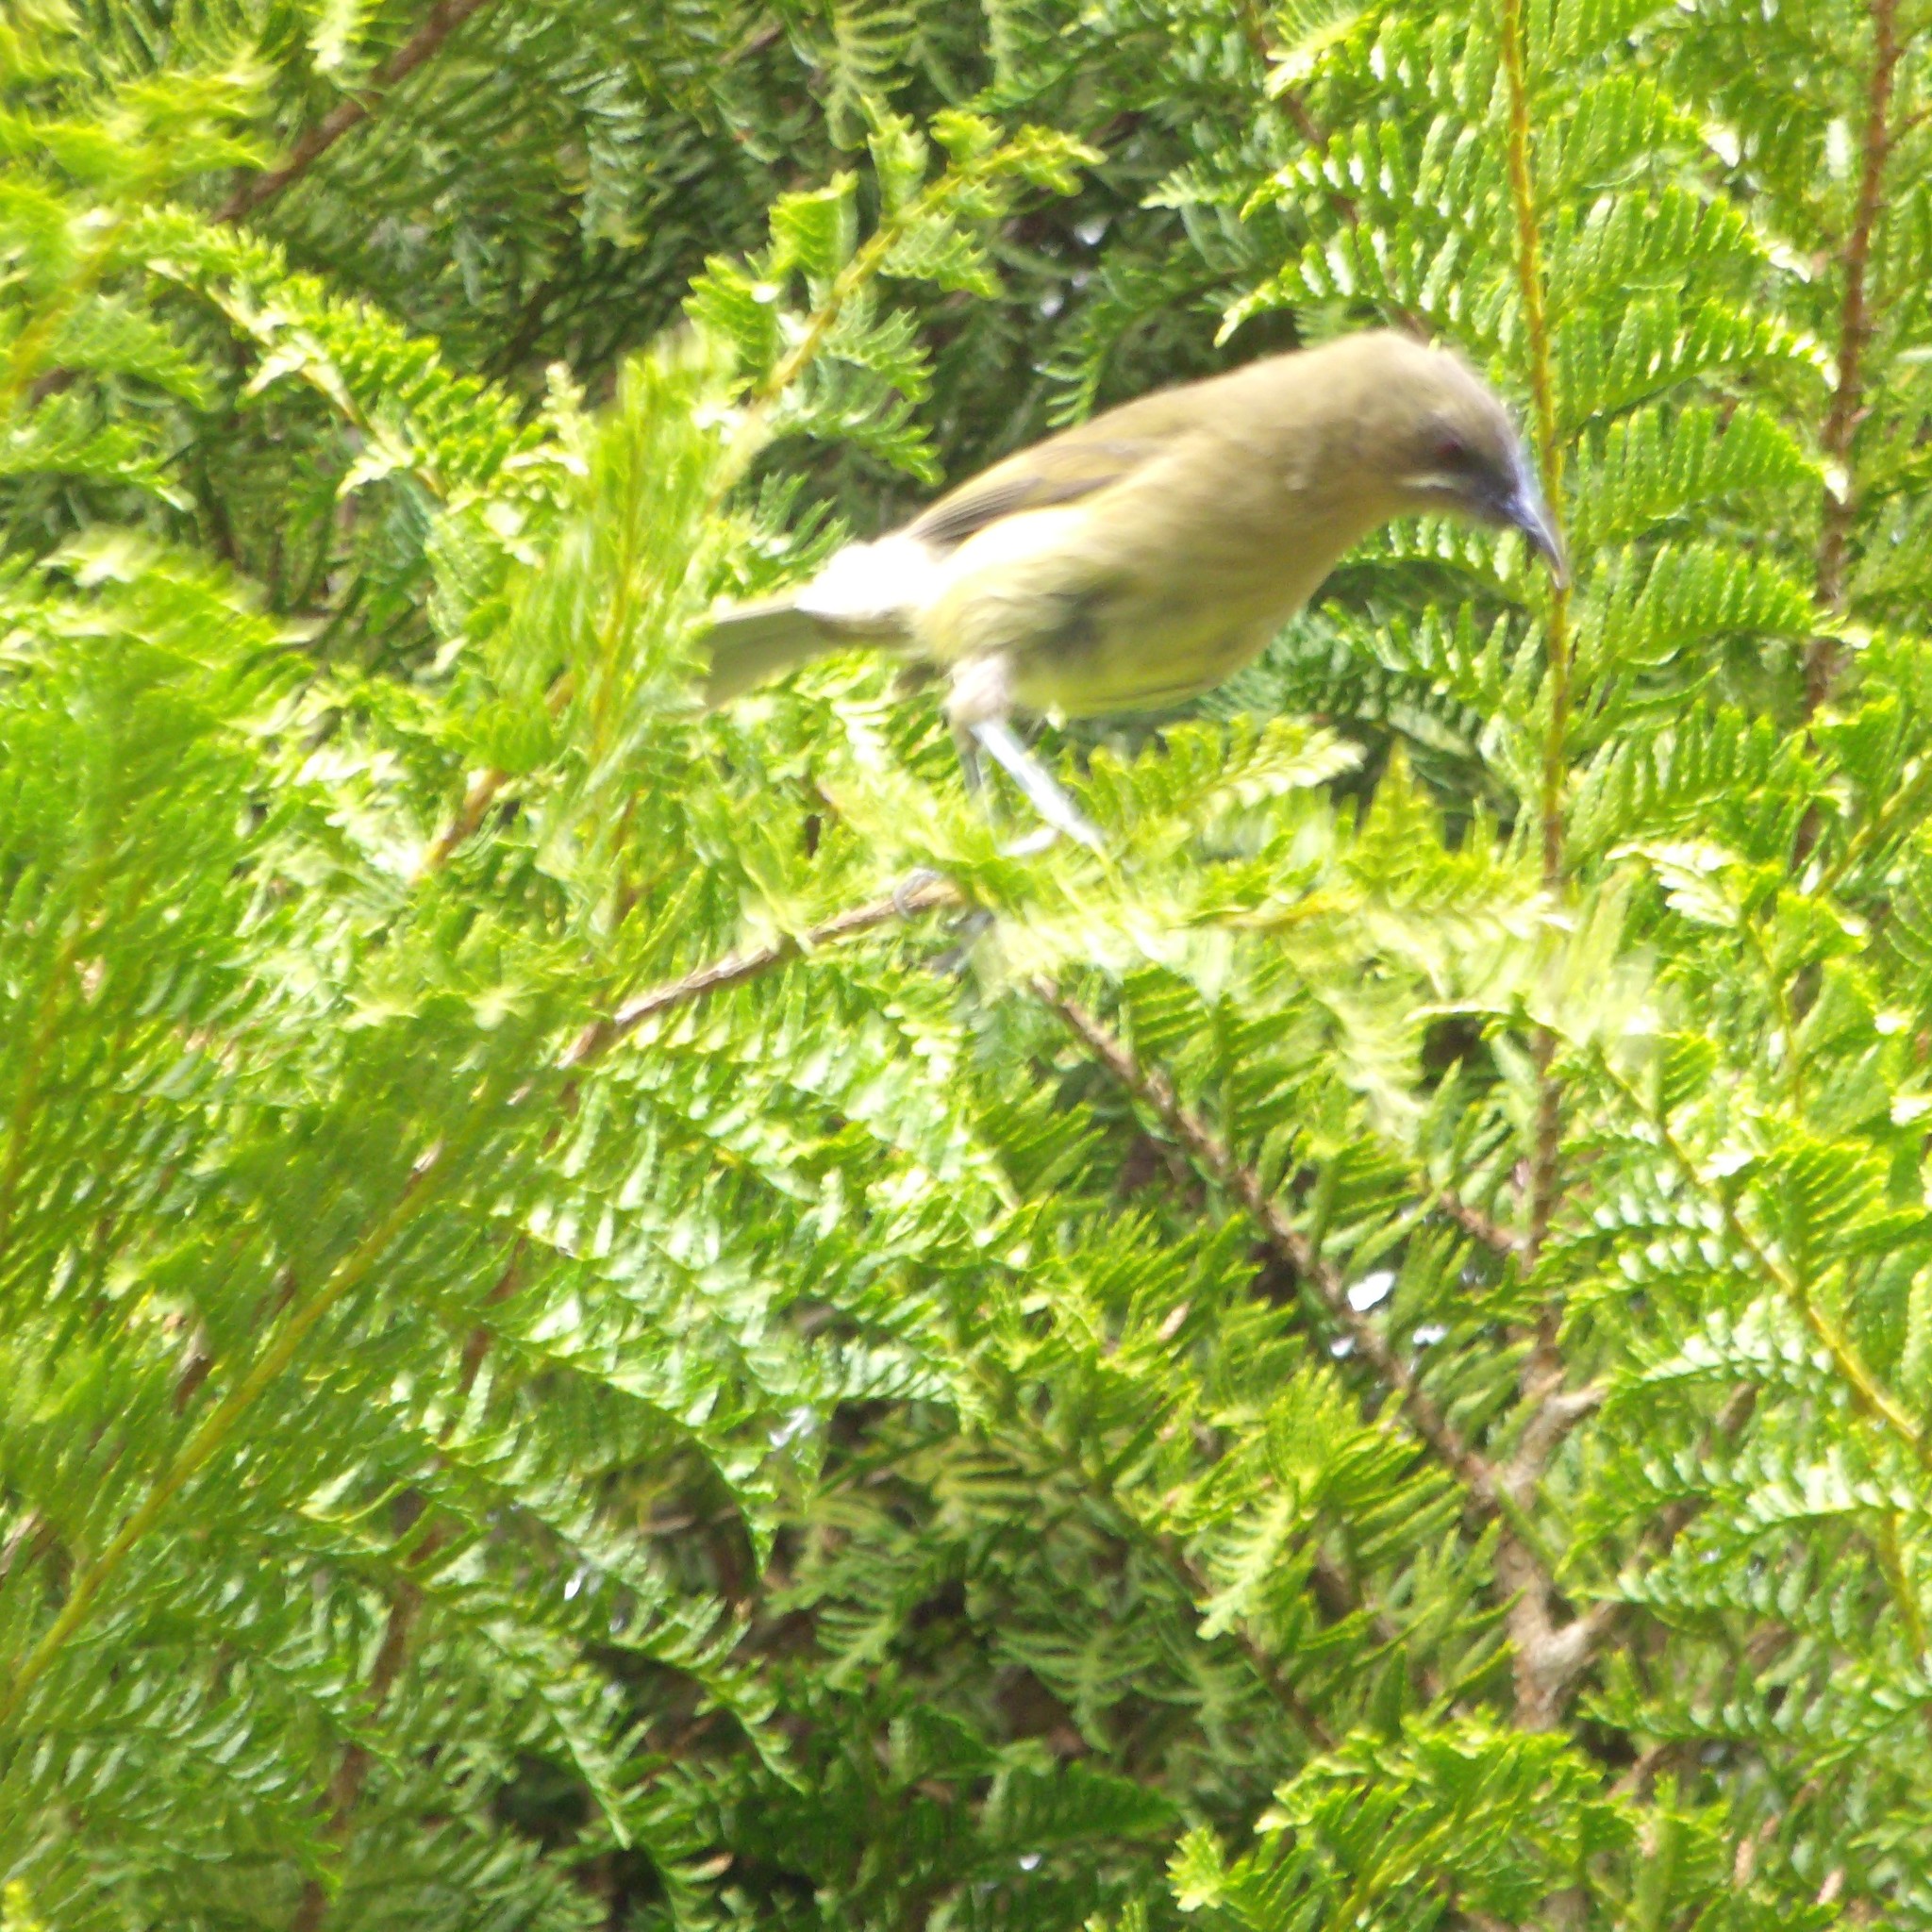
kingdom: Animalia
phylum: Chordata
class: Aves
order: Passeriformes
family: Meliphagidae
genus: Anthornis
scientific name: Anthornis melanura
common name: New zealand bellbird
